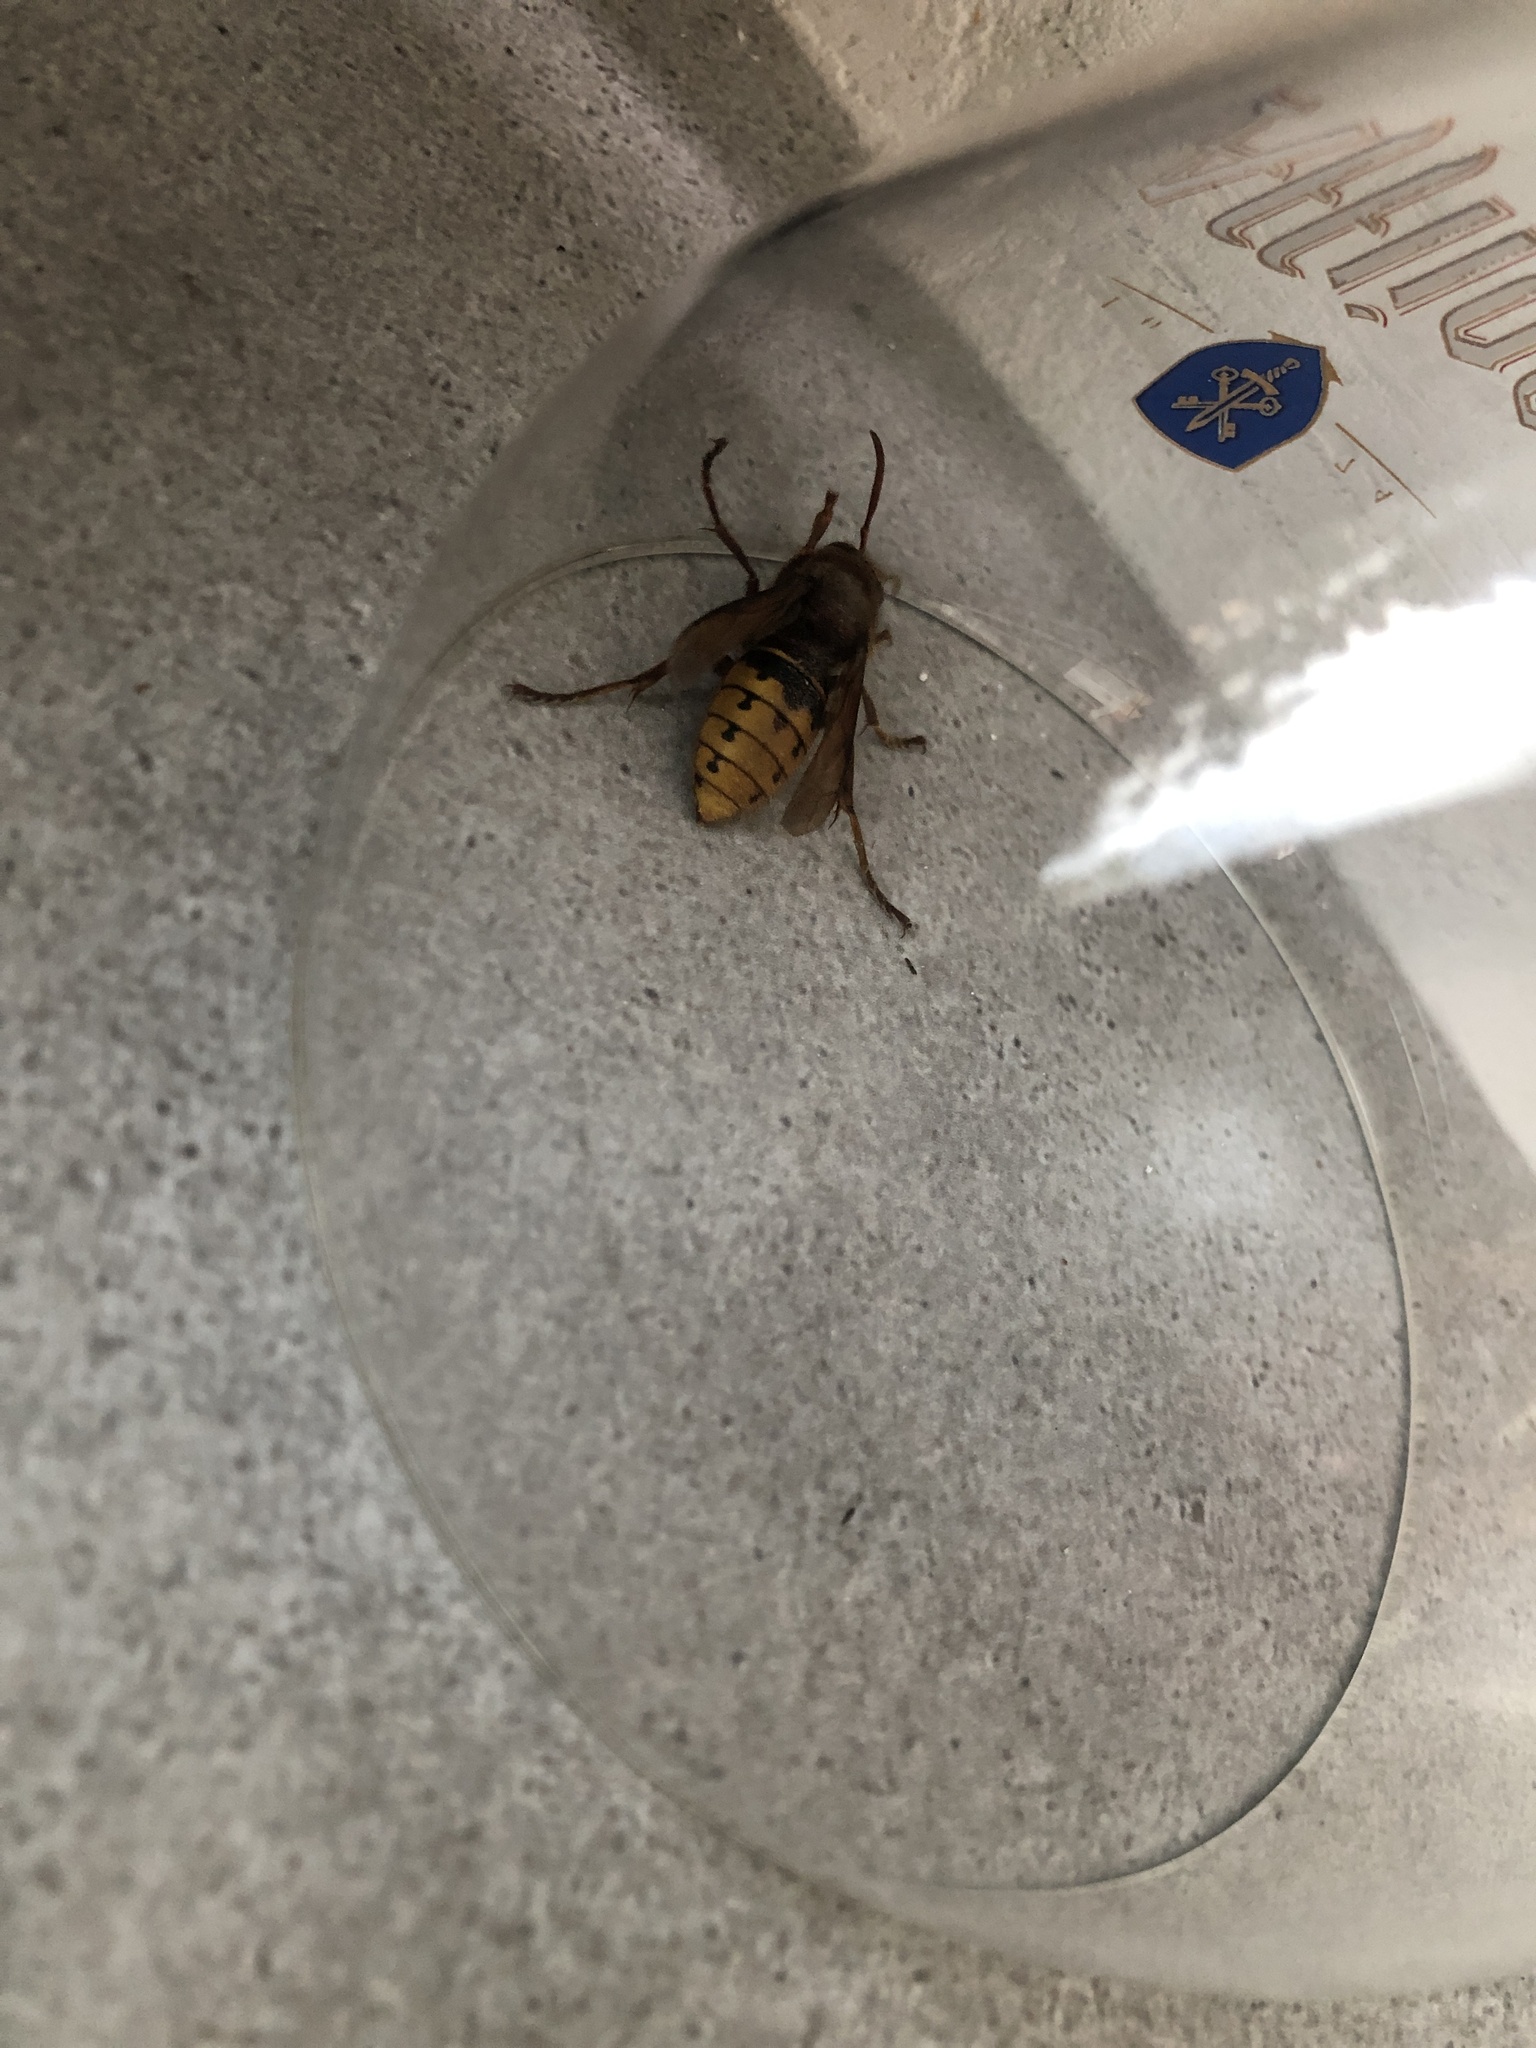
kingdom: Animalia
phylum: Arthropoda
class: Insecta
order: Hymenoptera
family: Vespidae
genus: Vespa
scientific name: Vespa crabro
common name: Hornet
